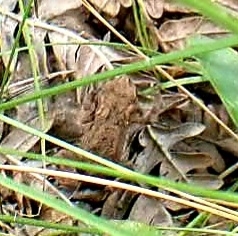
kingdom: Animalia
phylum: Chordata
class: Amphibia
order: Anura
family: Bufonidae
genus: Bufo
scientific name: Bufo bufo
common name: Common toad
